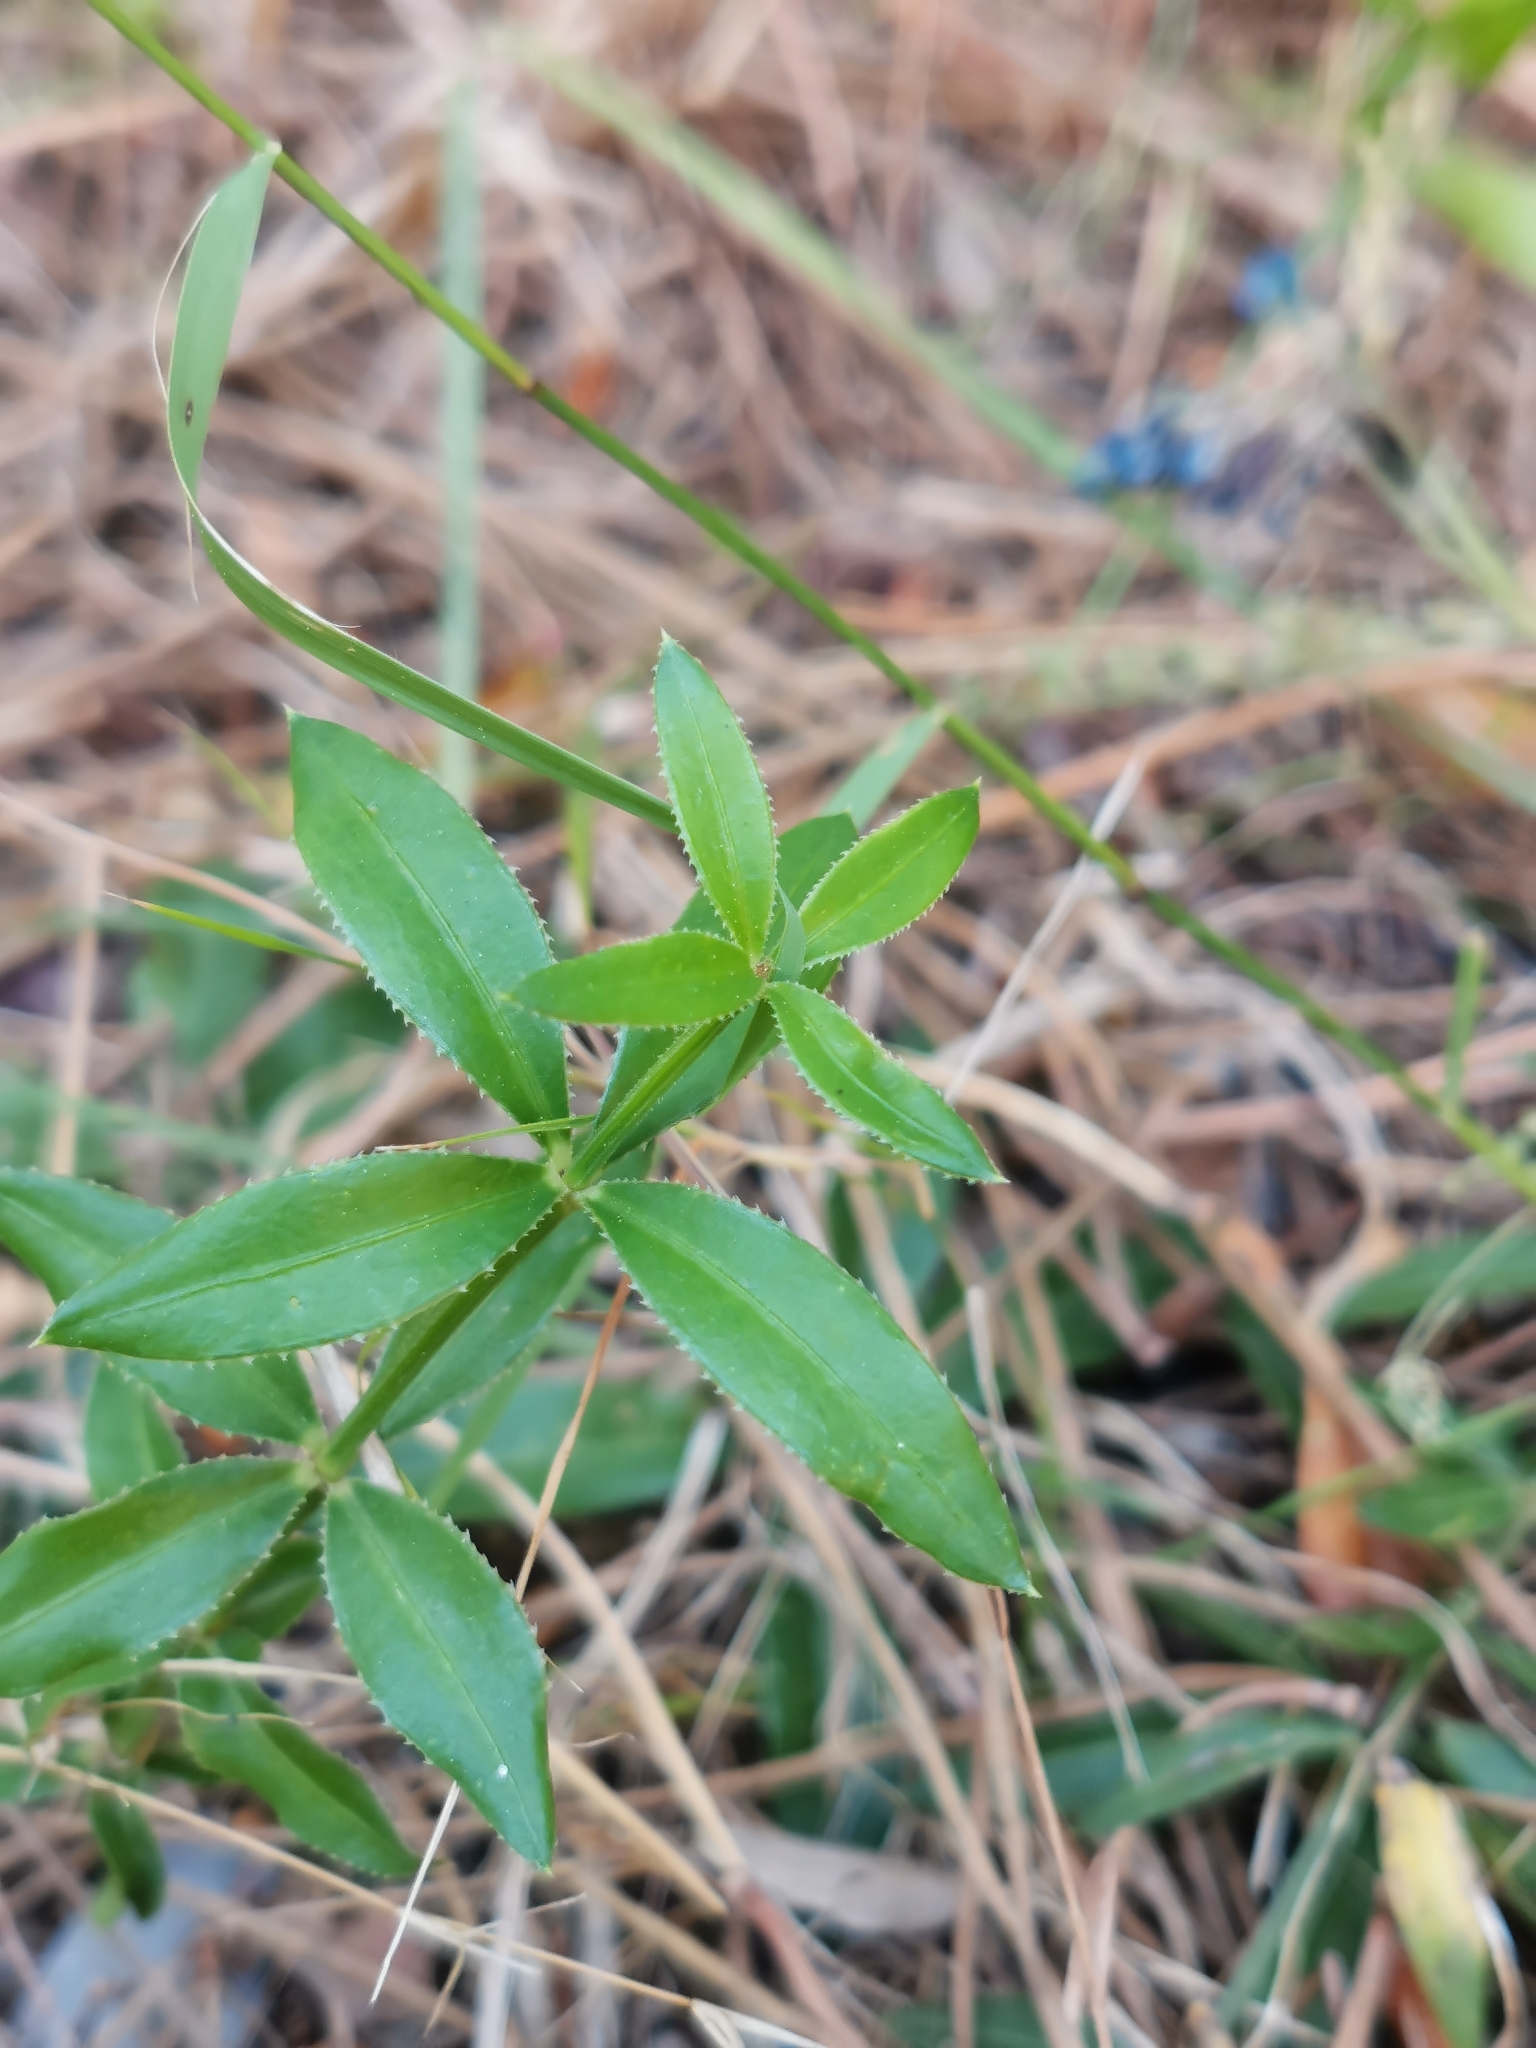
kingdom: Plantae
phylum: Tracheophyta
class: Magnoliopsida
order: Gentianales
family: Rubiaceae
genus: Rubia
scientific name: Rubia peregrina
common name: Wild madder
